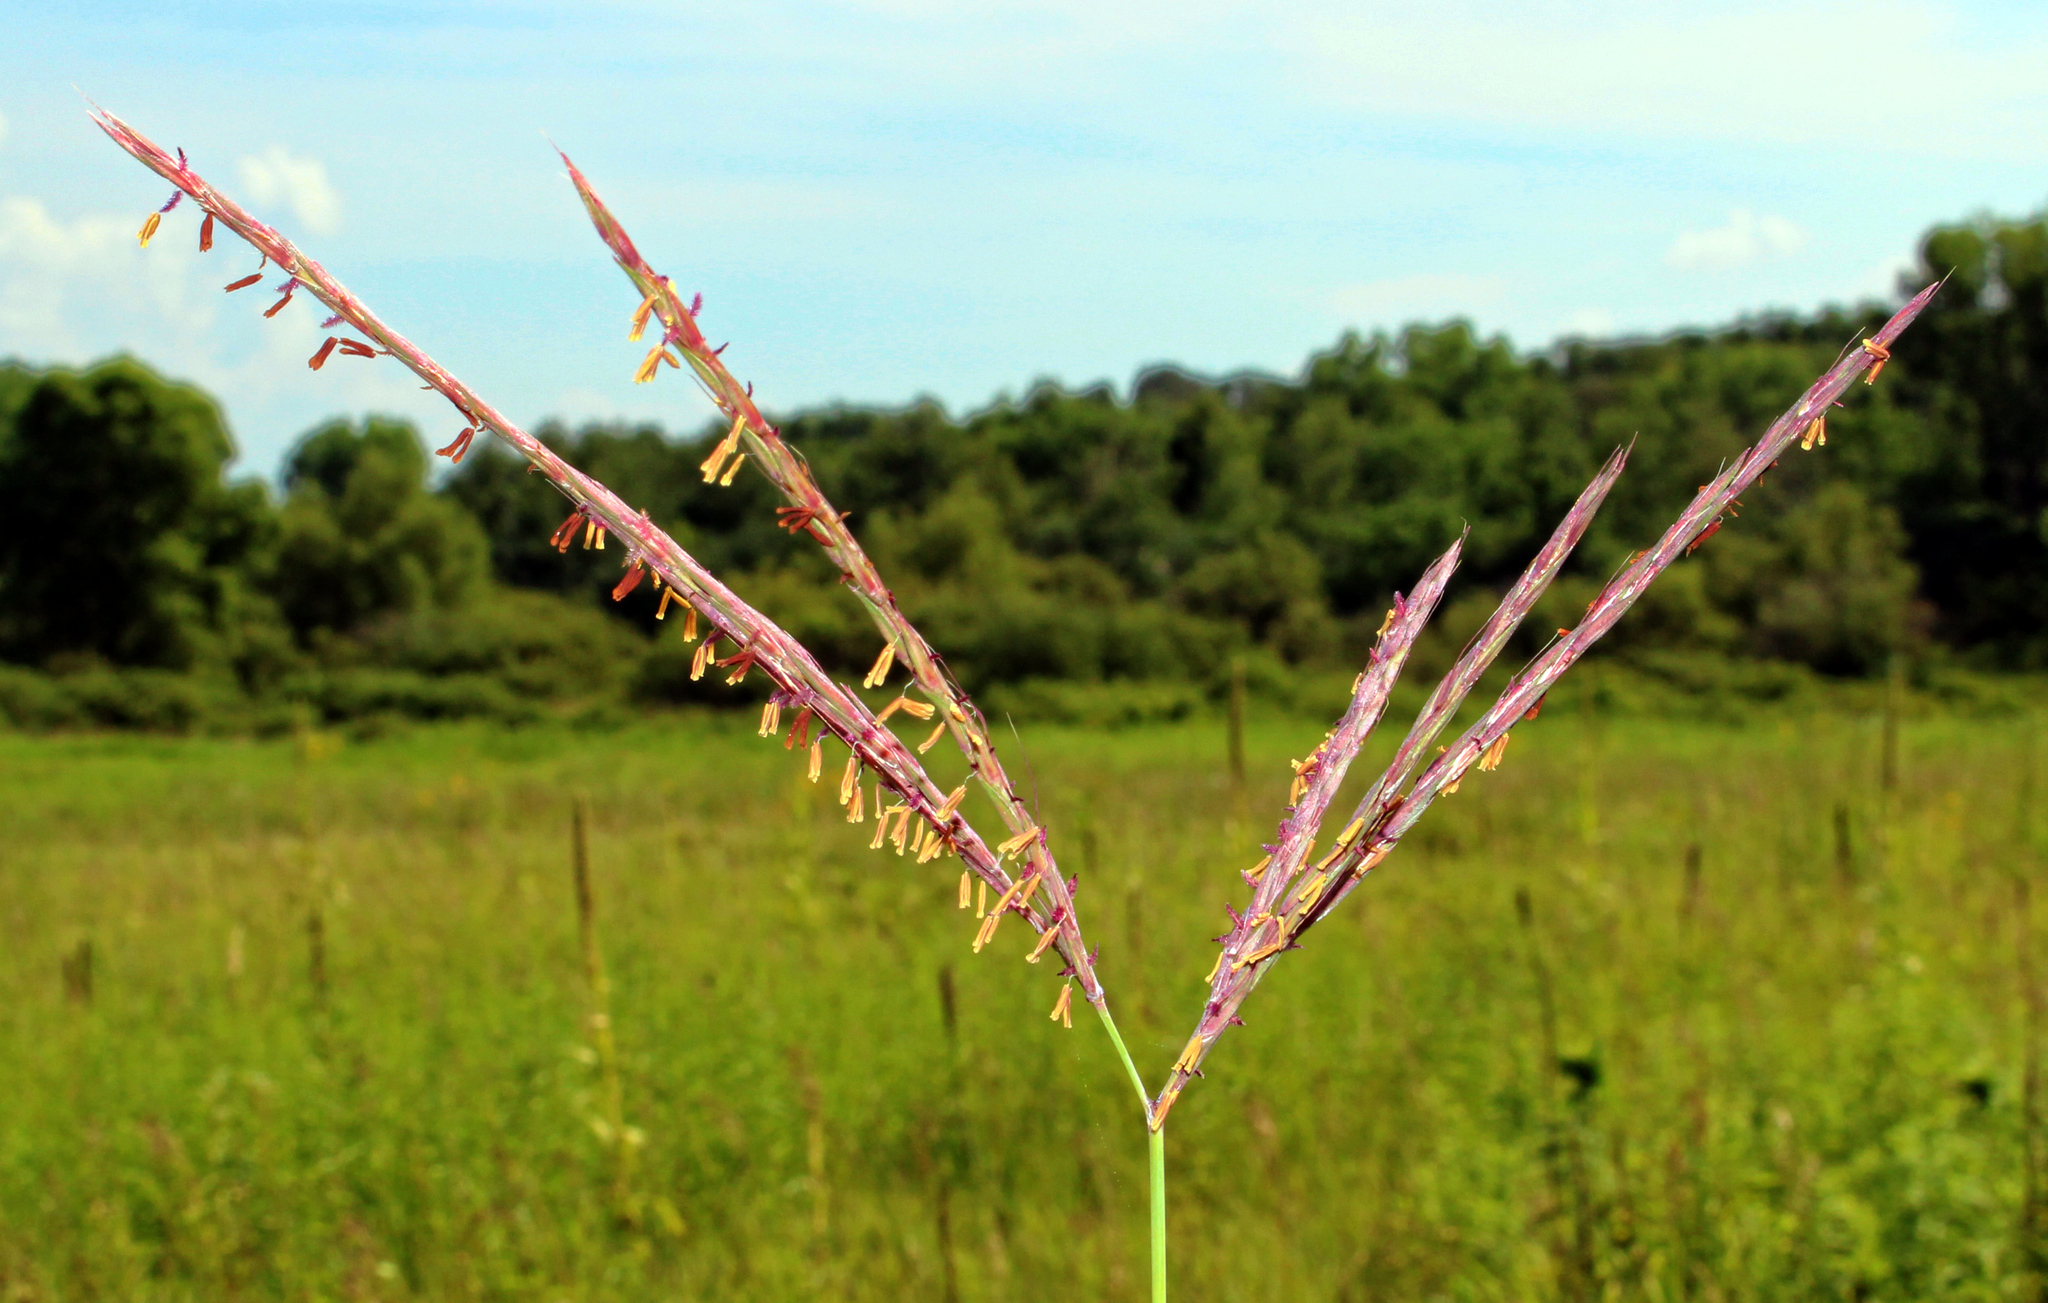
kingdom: Plantae
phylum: Tracheophyta
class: Liliopsida
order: Poales
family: Poaceae
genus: Andropogon
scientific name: Andropogon gerardi
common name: Big bluestem
